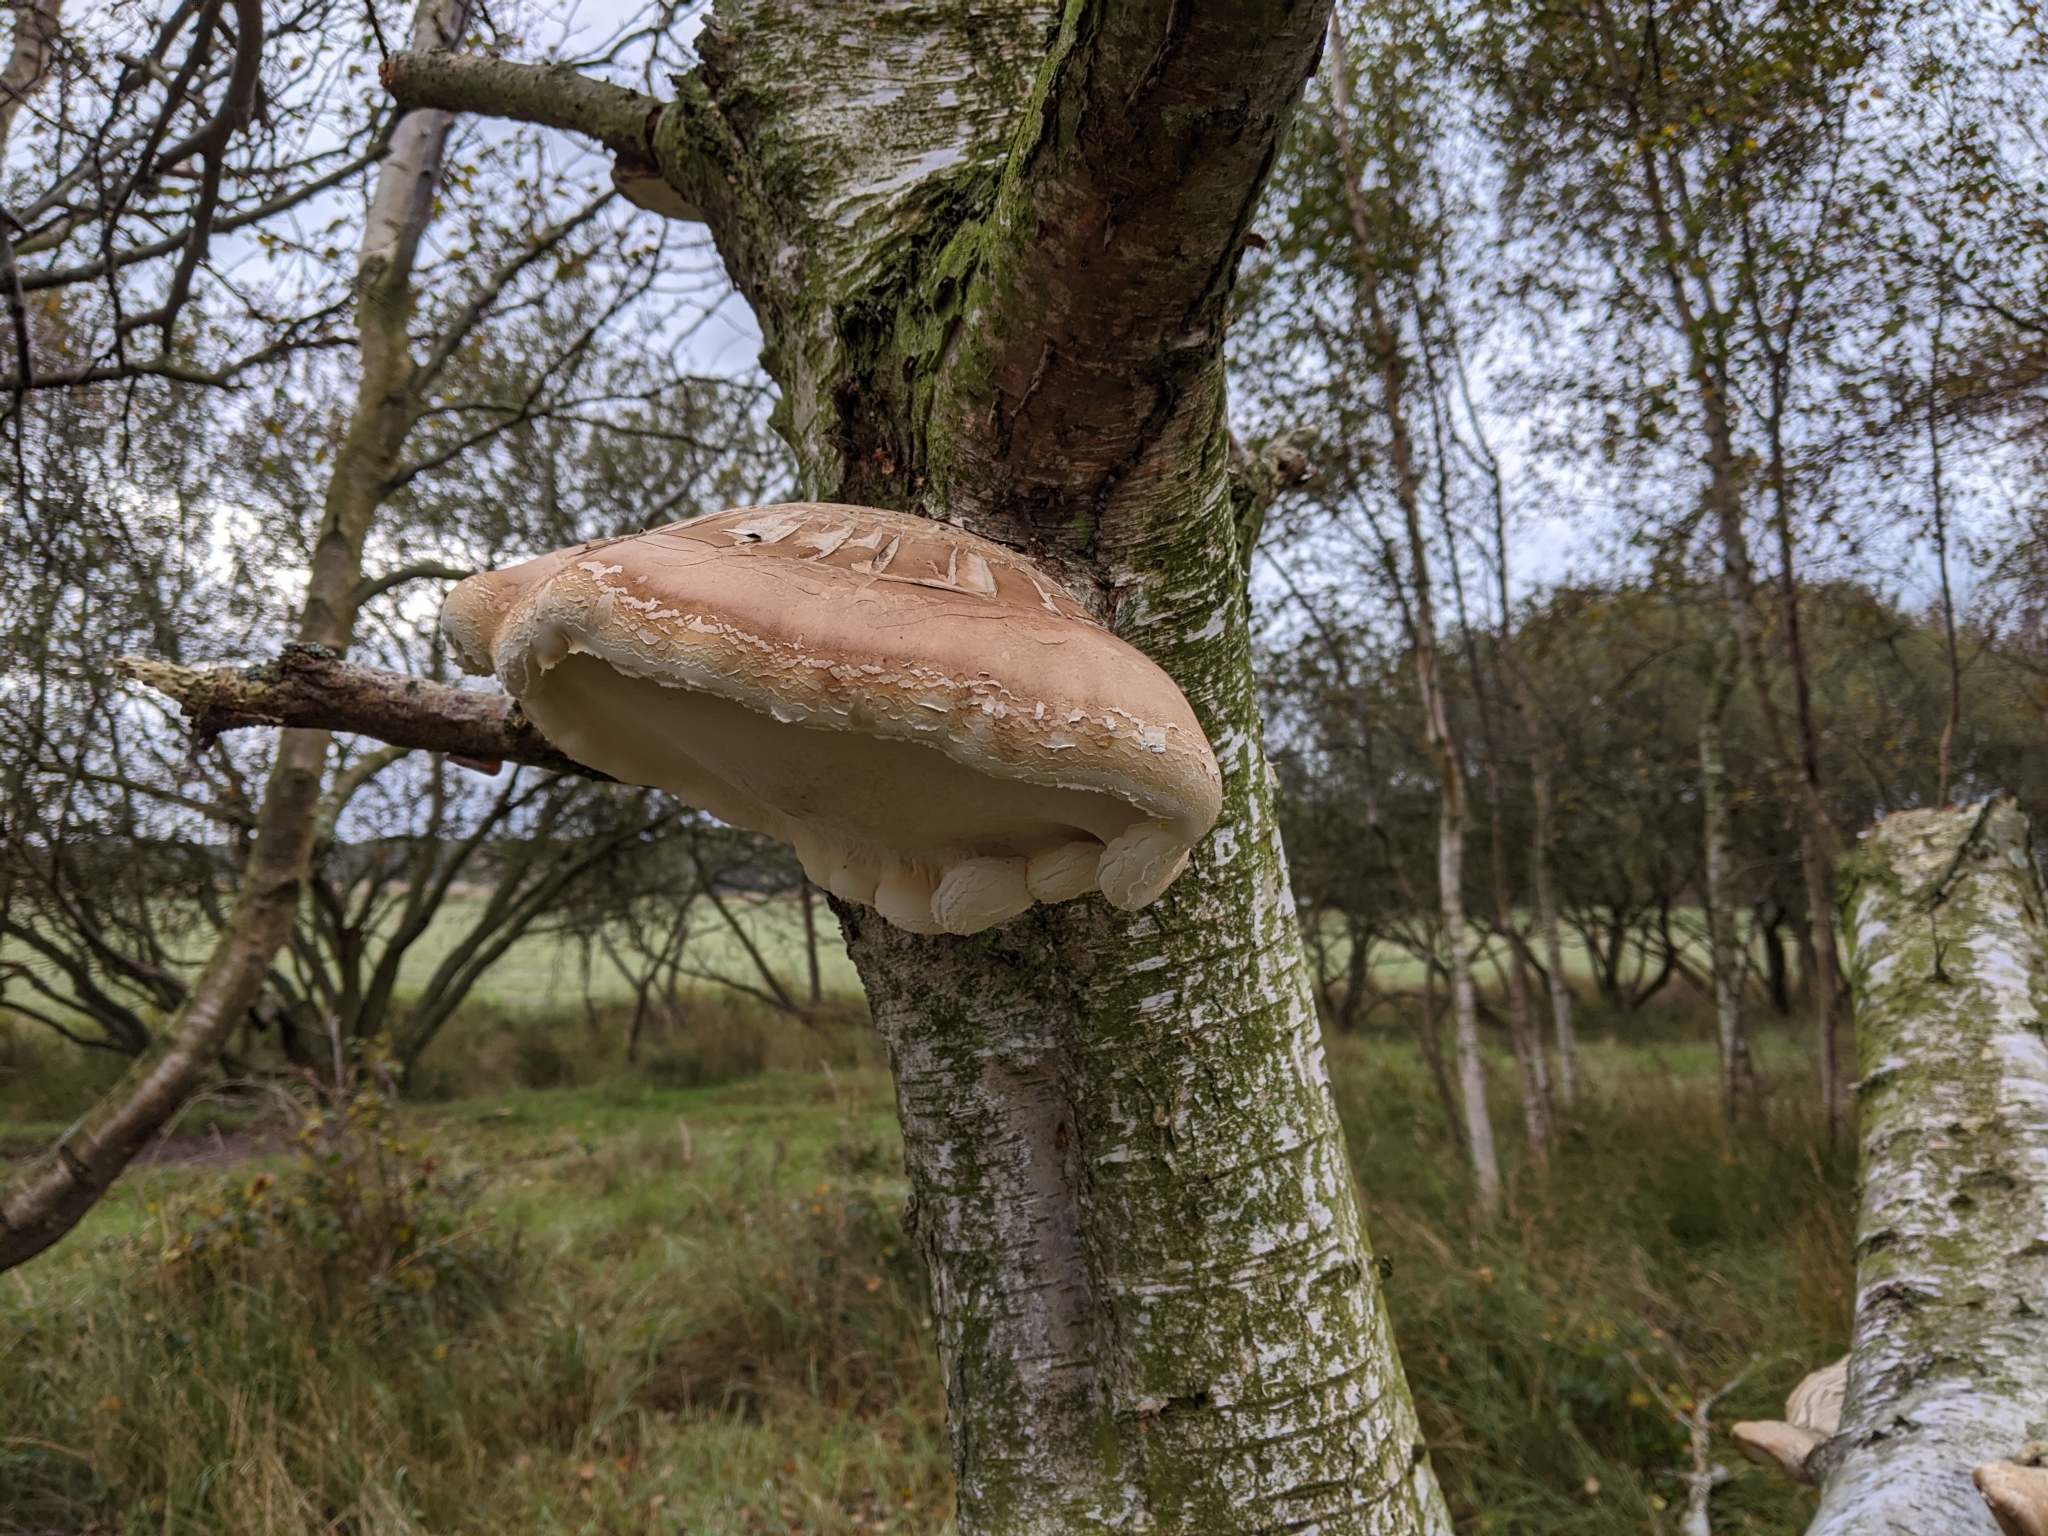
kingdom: Fungi
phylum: Basidiomycota
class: Agaricomycetes
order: Polyporales
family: Fomitopsidaceae
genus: Fomitopsis
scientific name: Fomitopsis betulina
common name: Birch polypore
